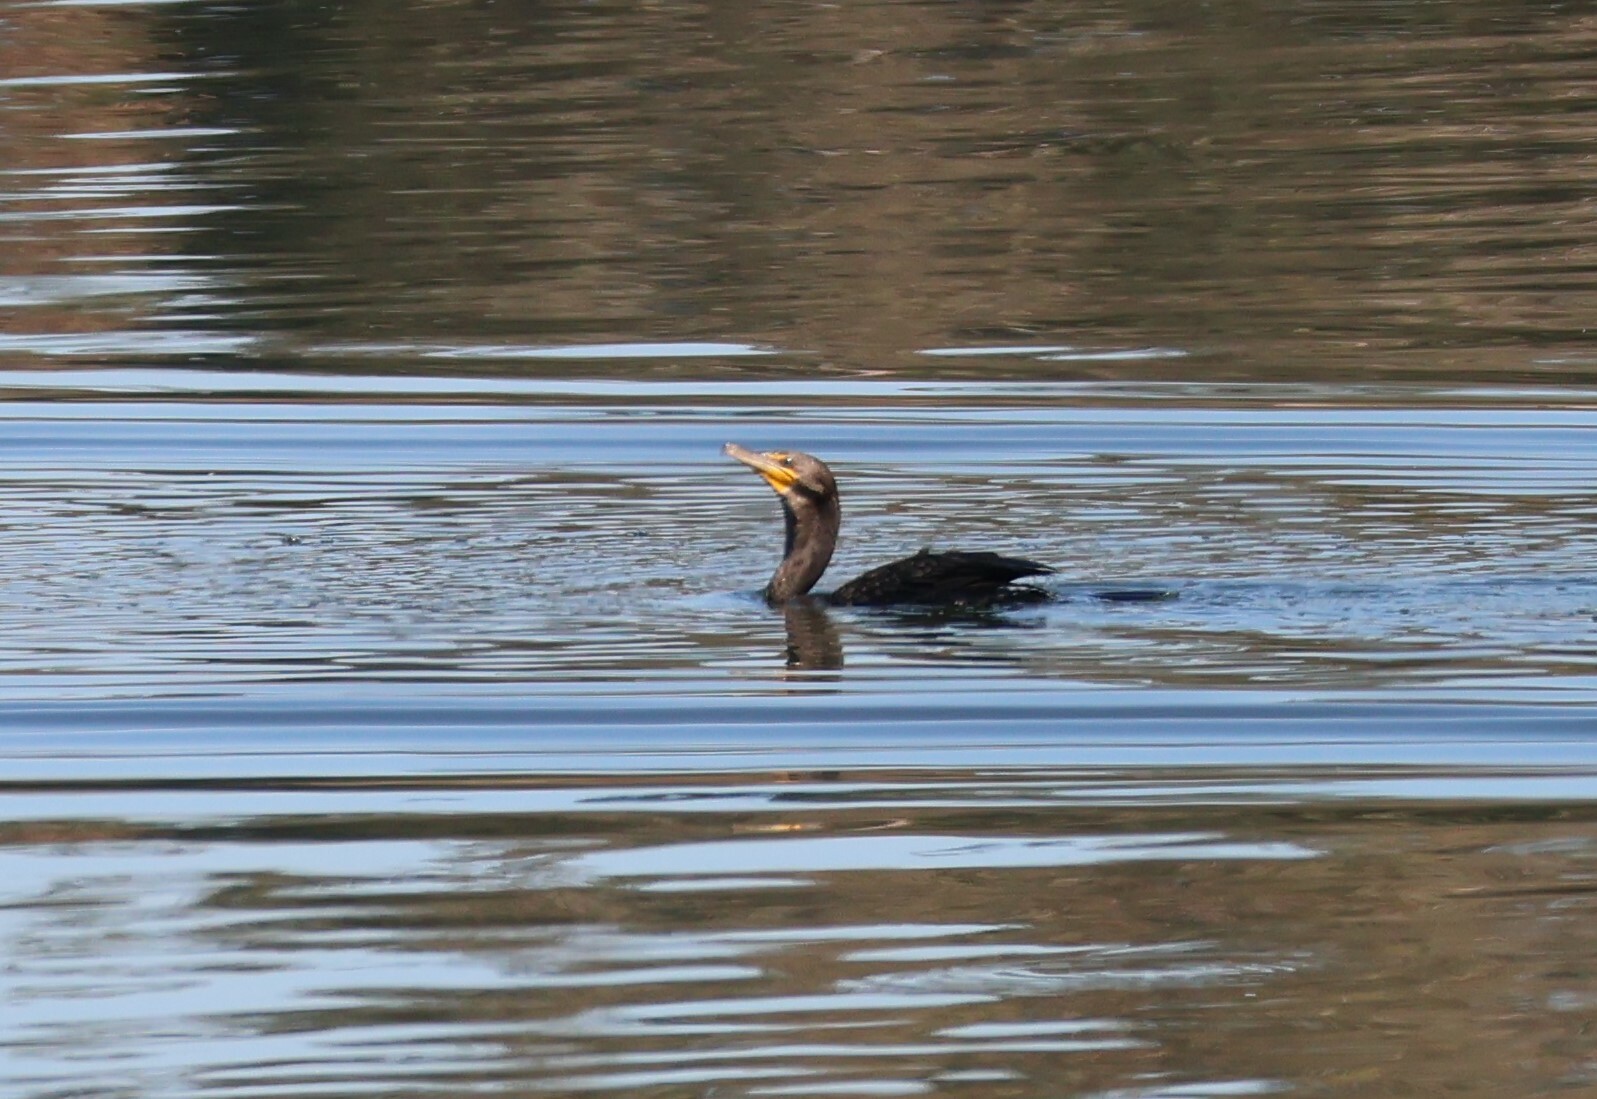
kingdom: Animalia
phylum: Chordata
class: Aves
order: Suliformes
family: Phalacrocoracidae
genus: Phalacrocorax
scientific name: Phalacrocorax auritus
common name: Double-crested cormorant
